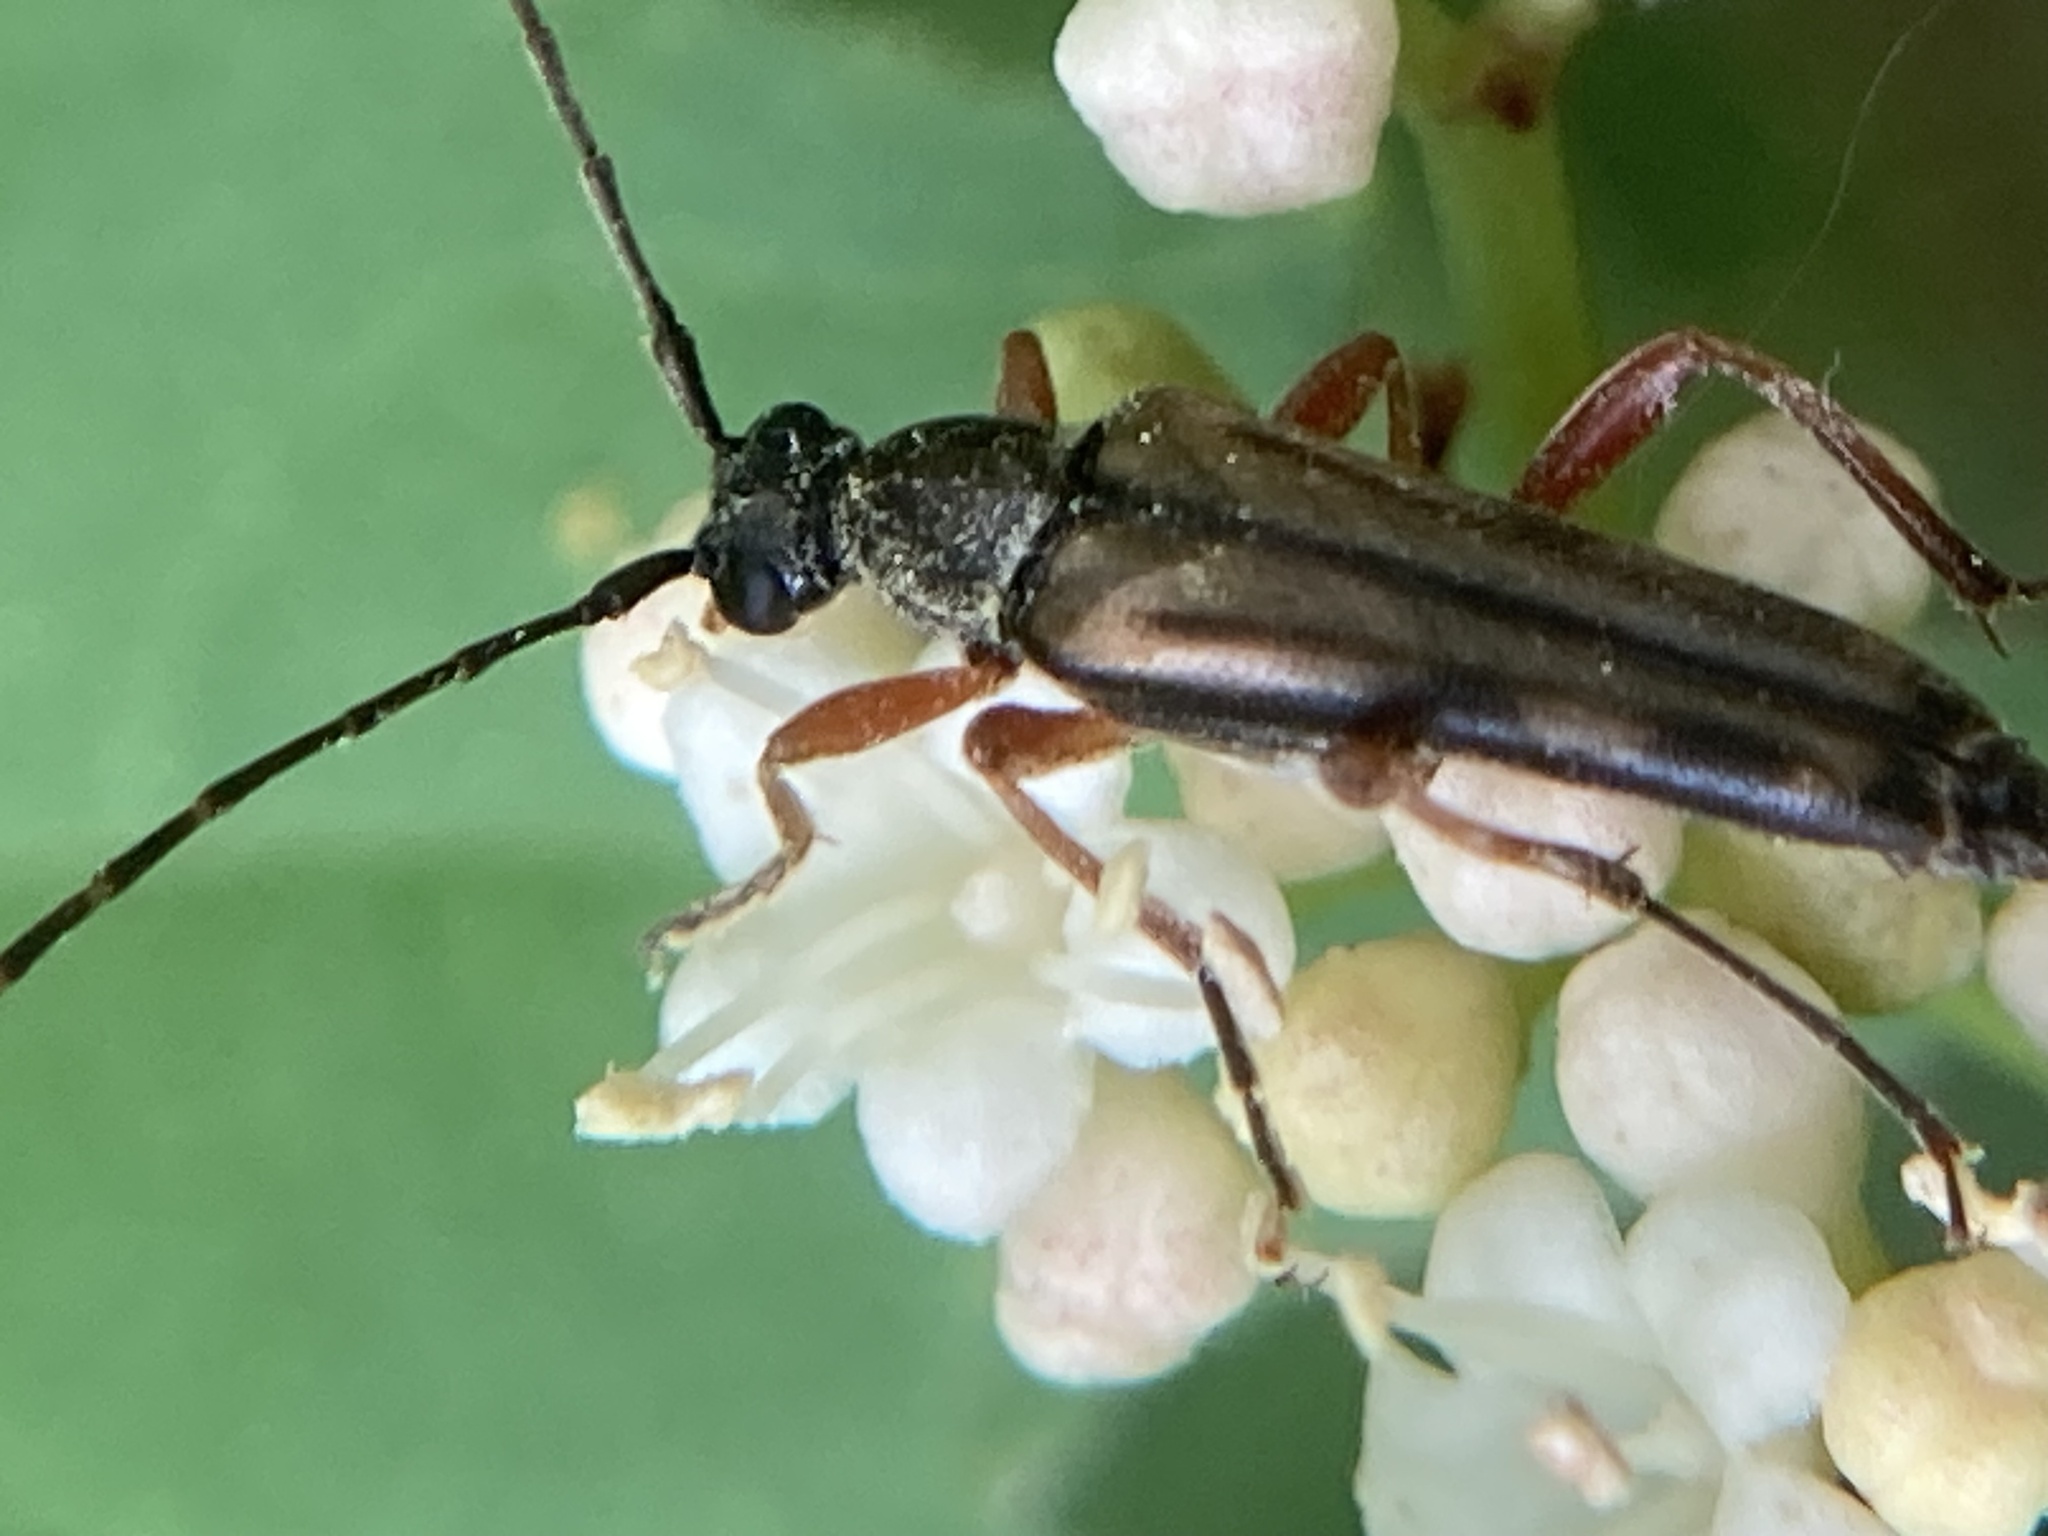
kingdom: Animalia
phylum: Arthropoda
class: Insecta
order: Coleoptera
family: Cerambycidae
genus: Analeptura
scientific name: Analeptura lineola
